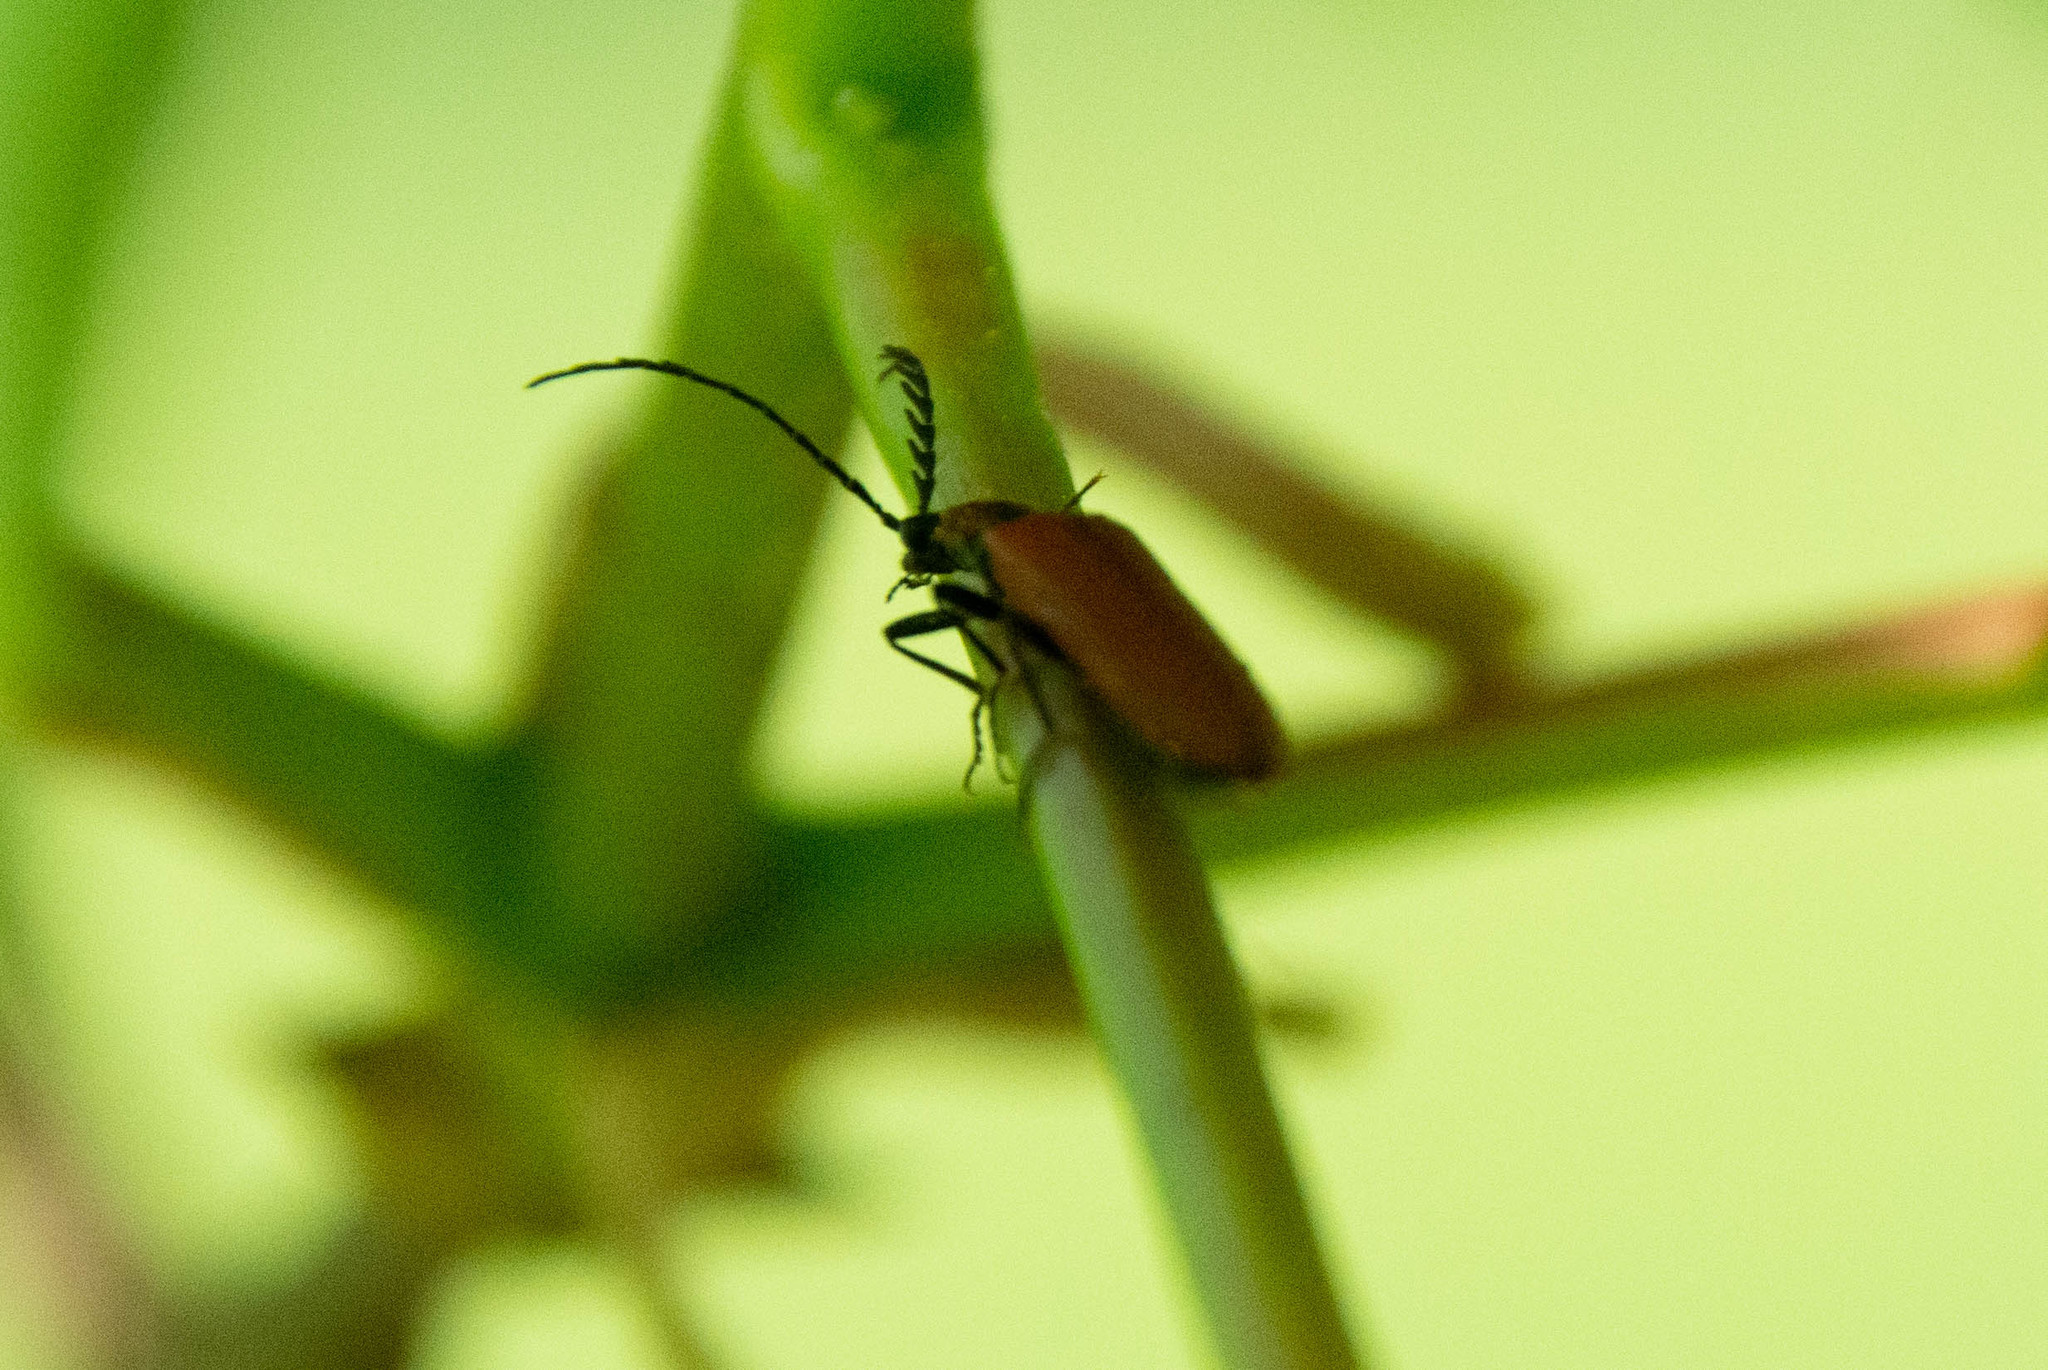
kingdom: Animalia
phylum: Arthropoda
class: Insecta
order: Coleoptera
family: Pyrochroidae
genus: Pyrochroa
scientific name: Pyrochroa coccinea
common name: Black-headed cardinal beetle
